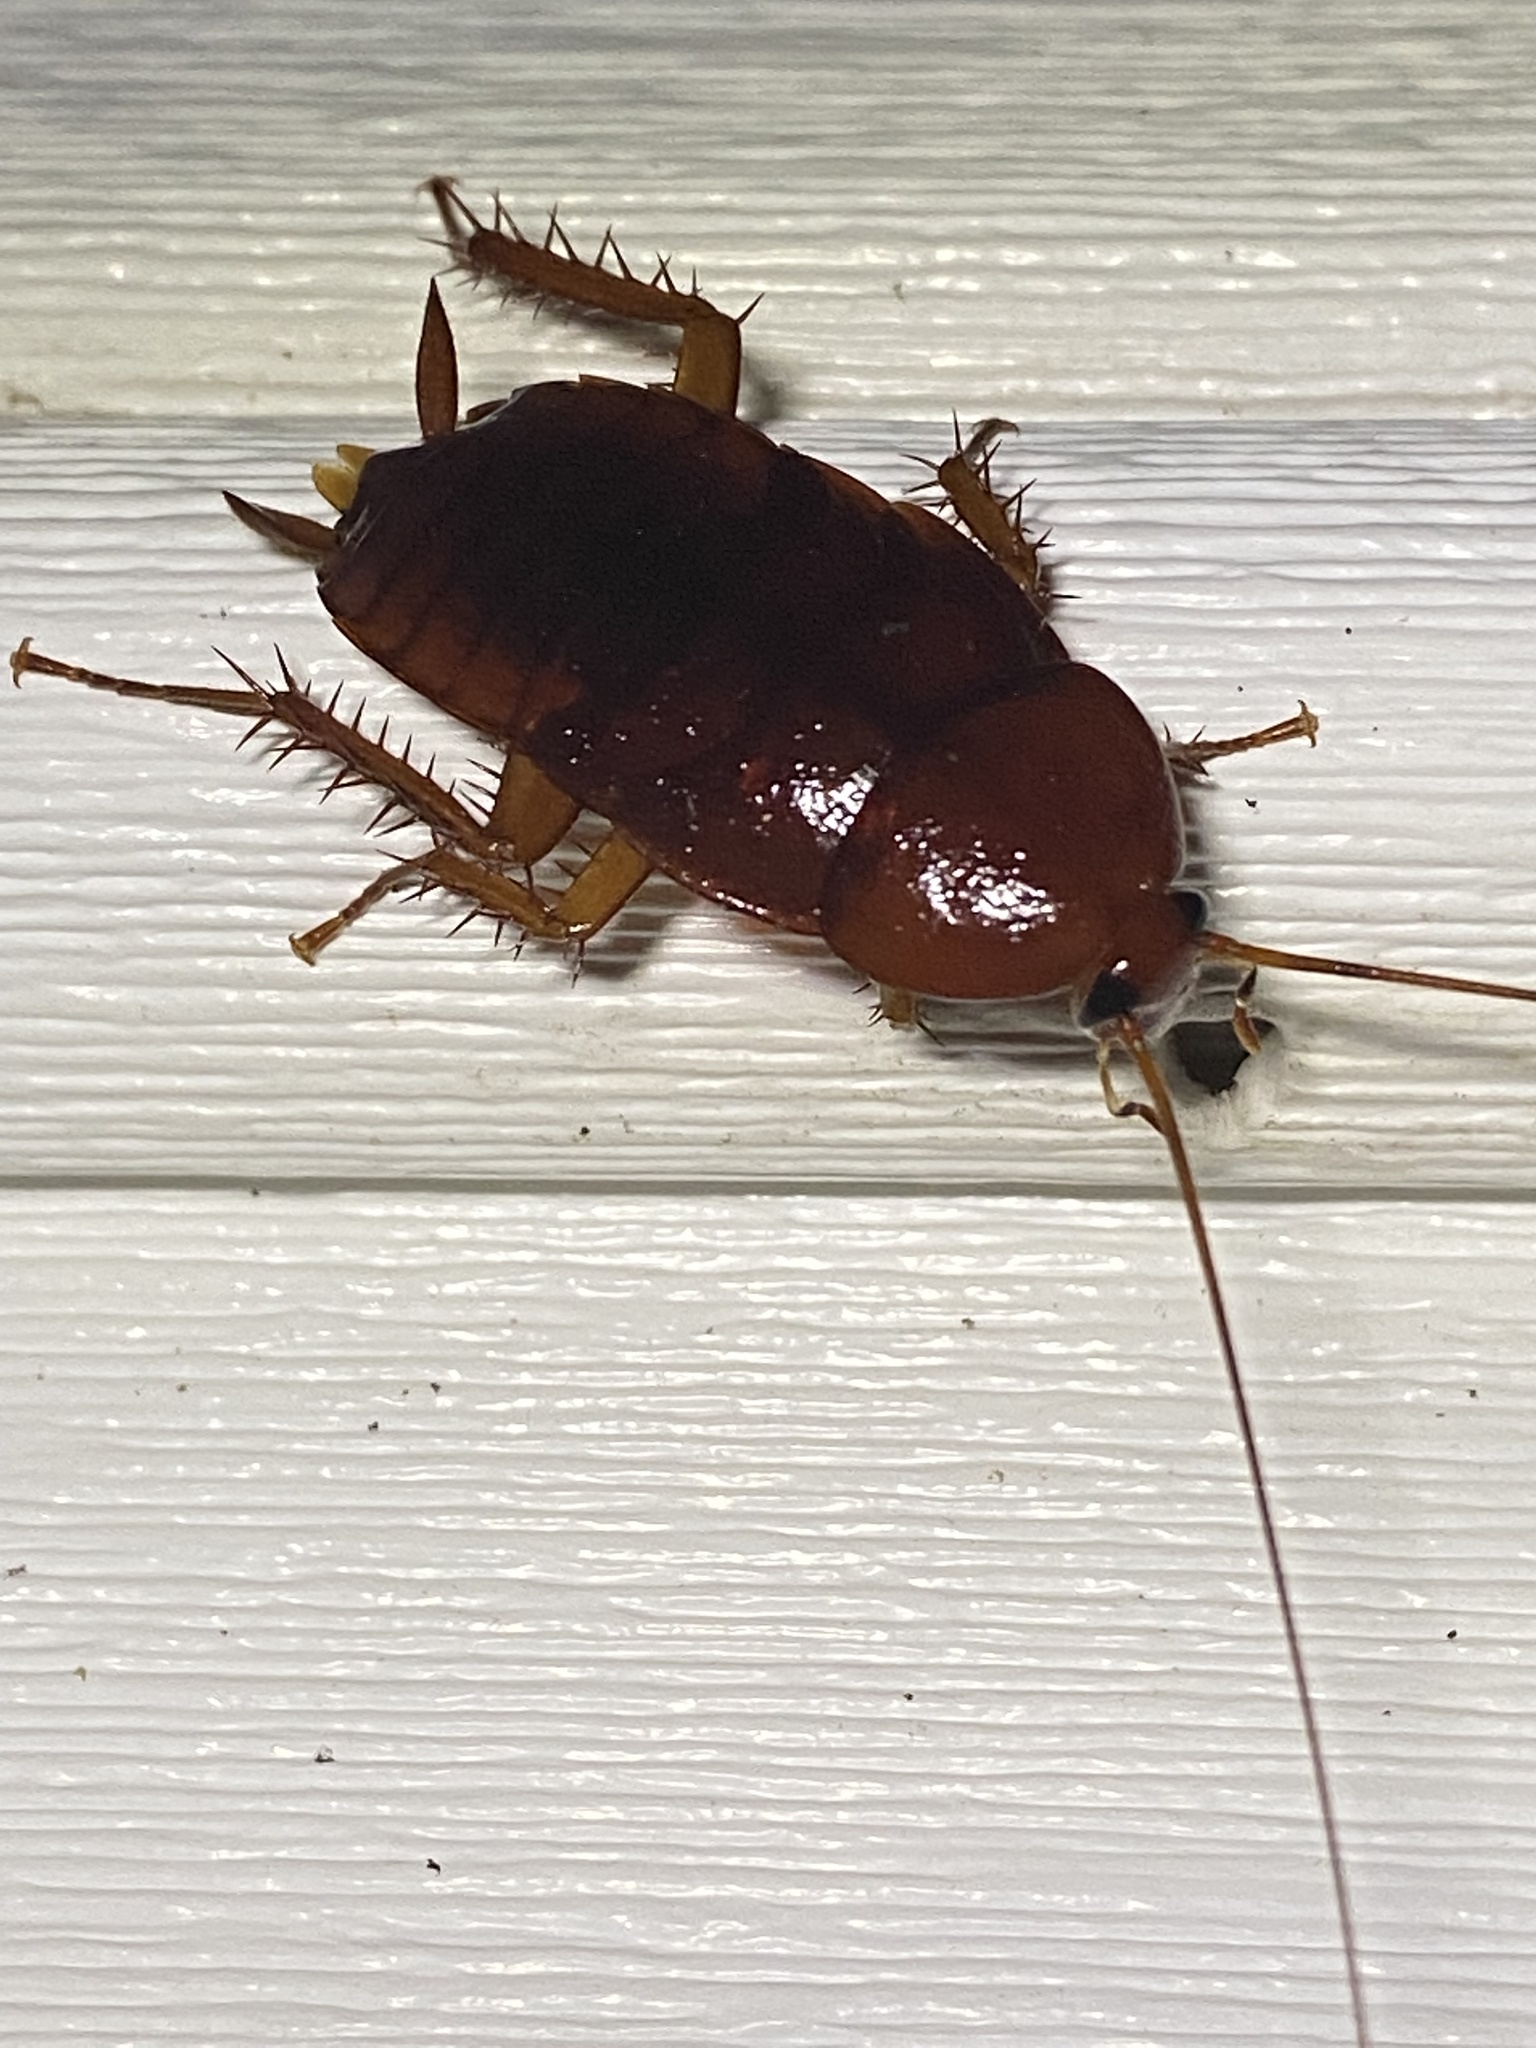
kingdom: Animalia
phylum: Arthropoda
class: Insecta
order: Blattodea
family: Blattidae
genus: Periplaneta
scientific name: Periplaneta fuliginosa
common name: Smokeybrown cockroad
